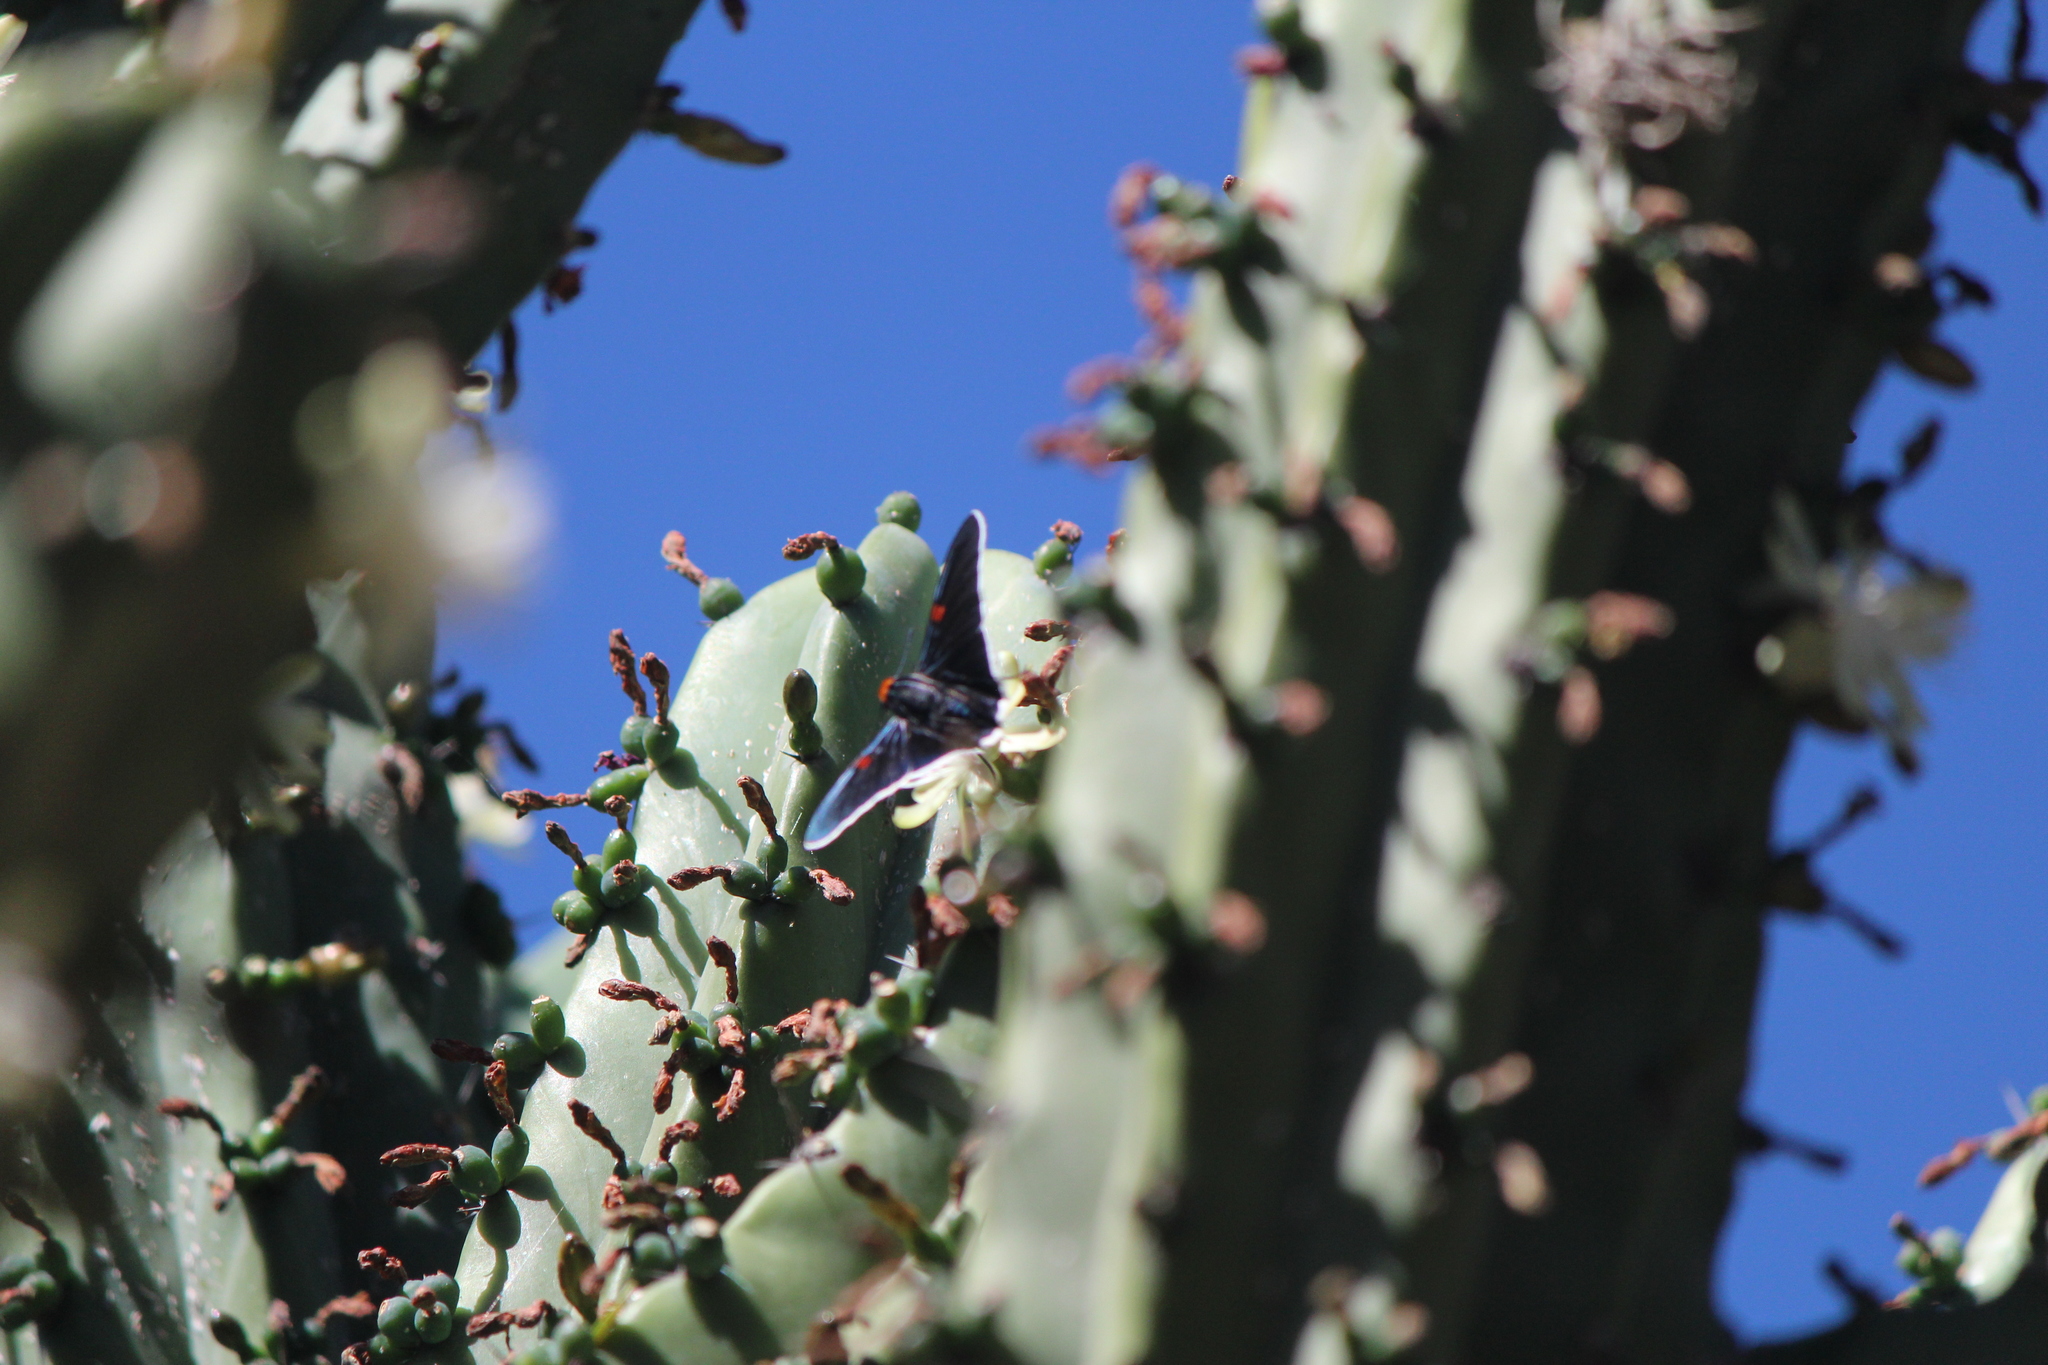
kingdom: Animalia
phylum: Arthropoda
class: Insecta
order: Lepidoptera
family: Hesperiidae
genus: Phocides
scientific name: Phocides lilea
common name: Guava skipper
